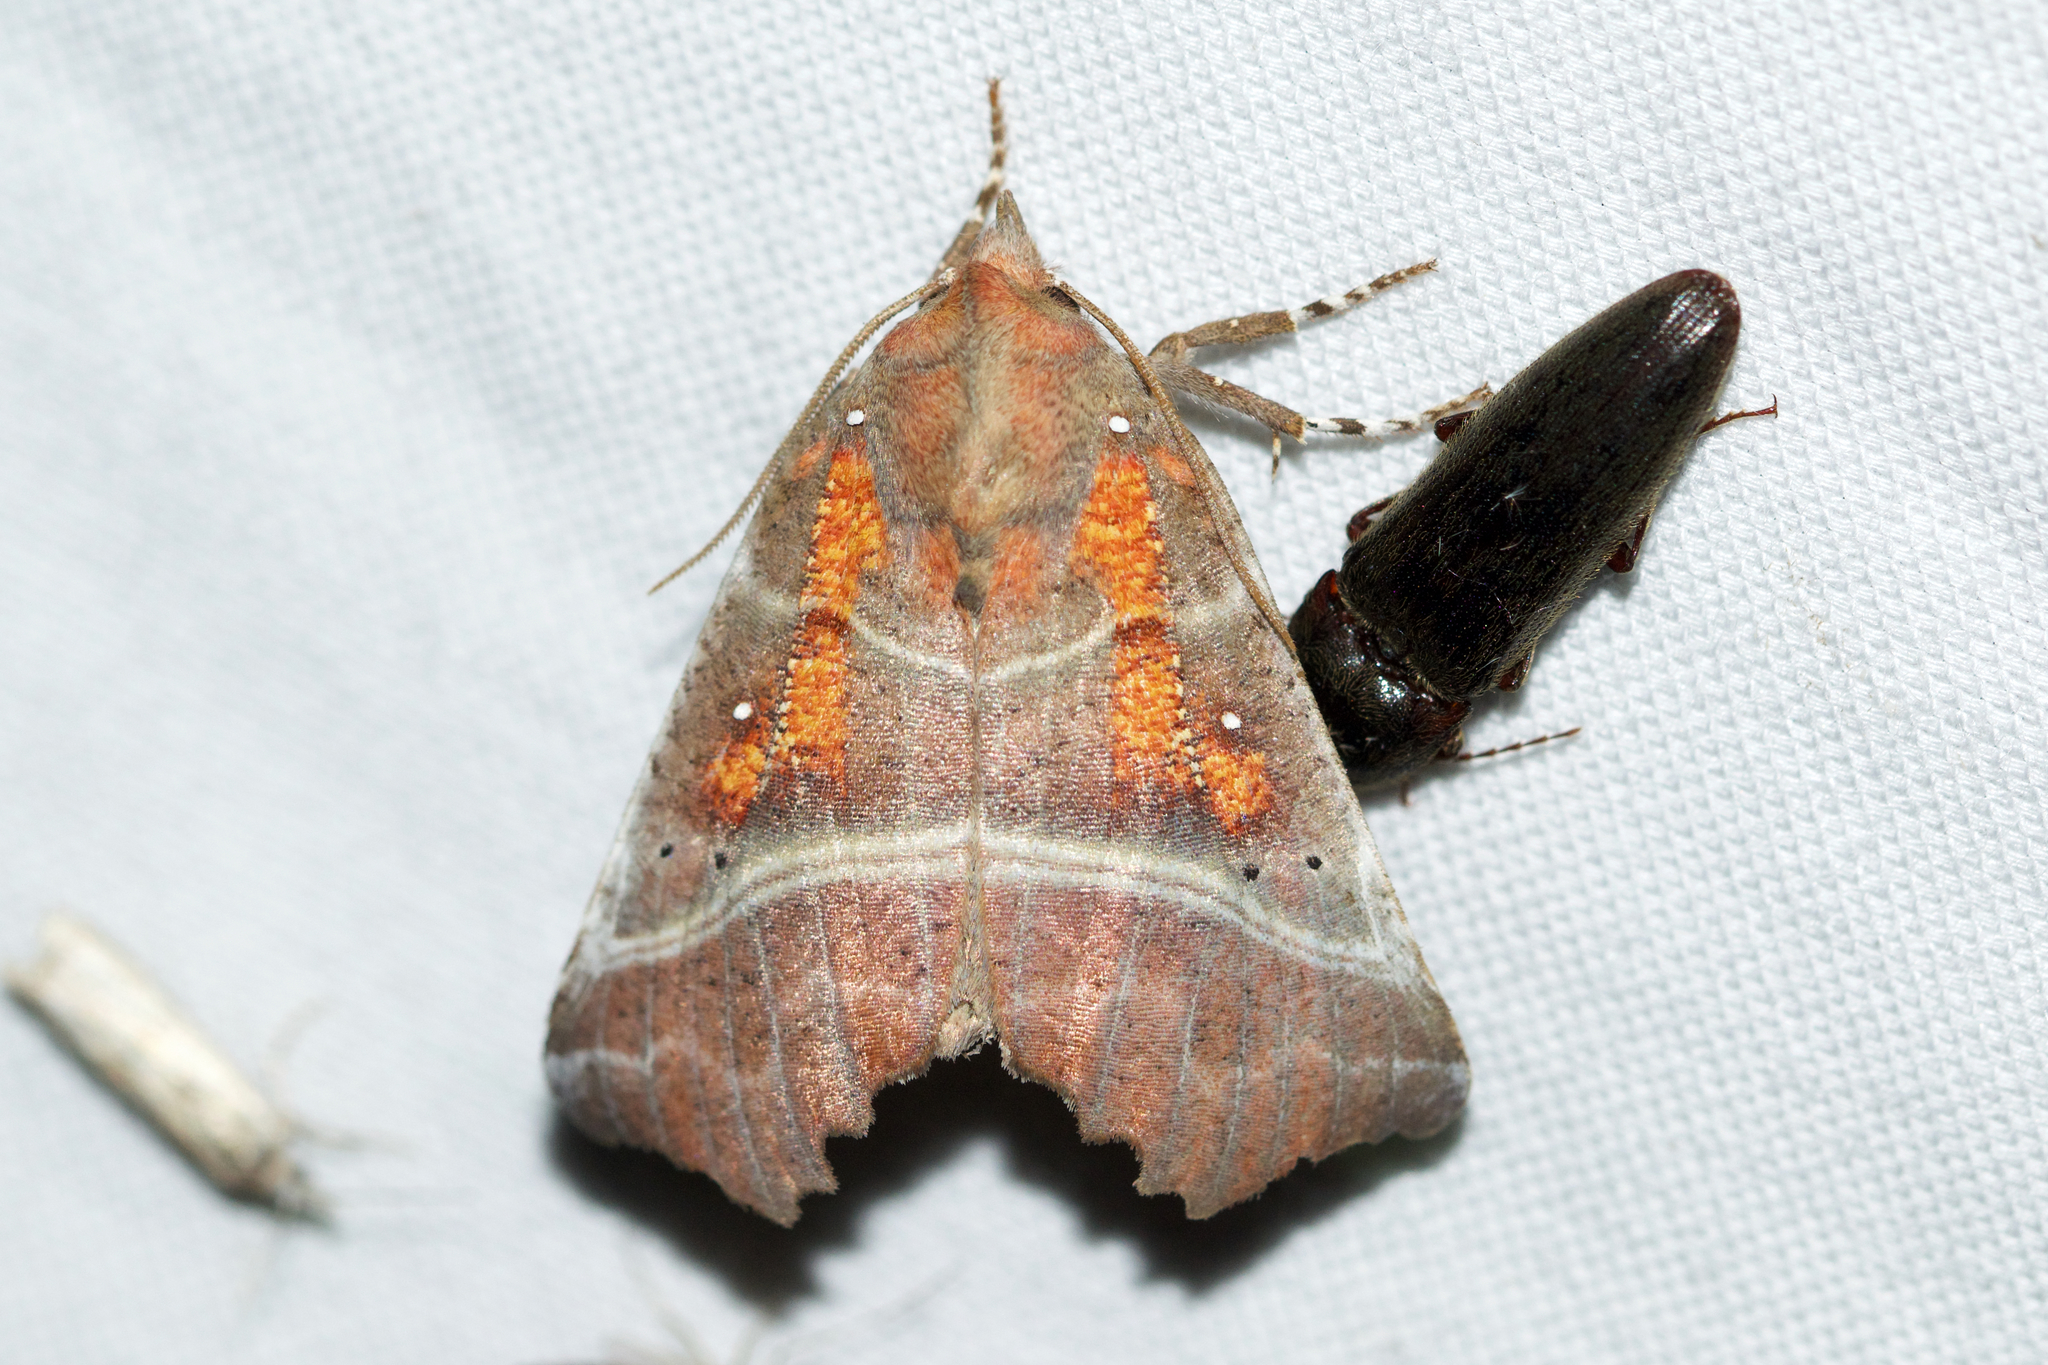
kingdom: Animalia
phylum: Arthropoda
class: Insecta
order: Lepidoptera
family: Erebidae
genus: Scoliopteryx
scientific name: Scoliopteryx libatrix
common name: Herald
